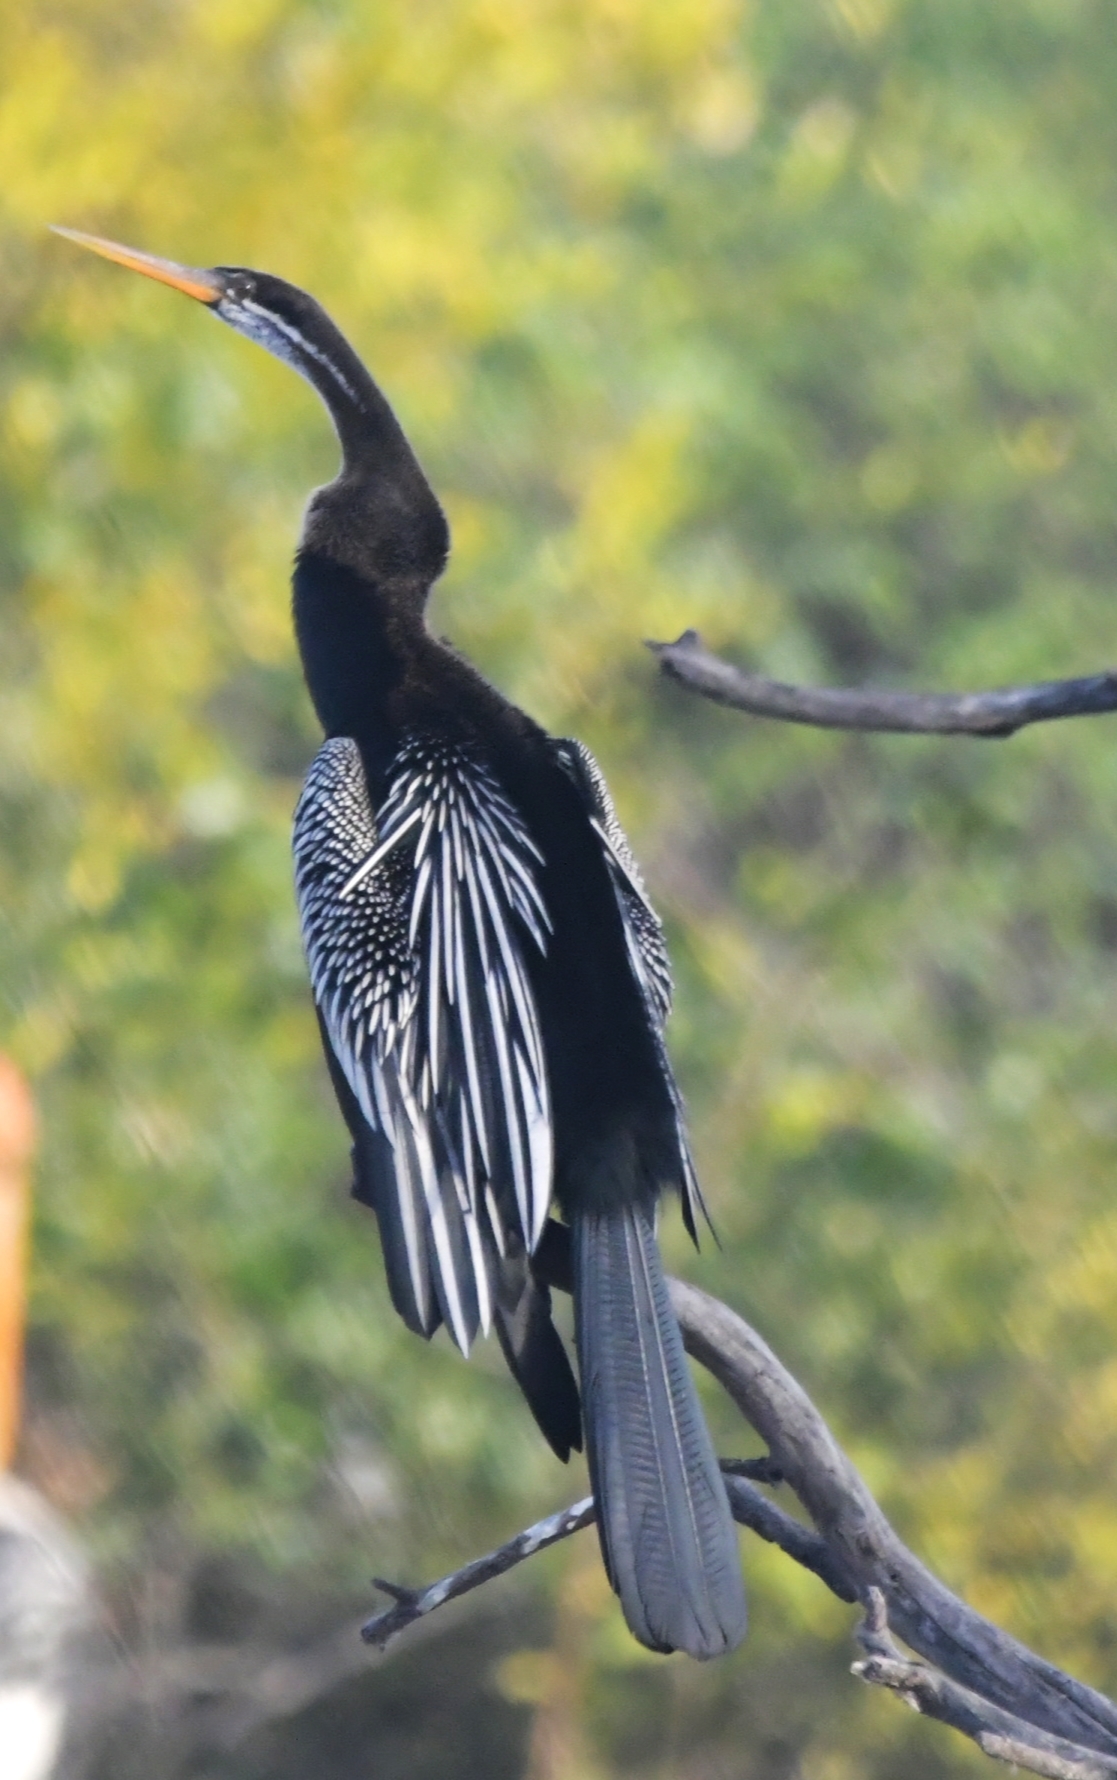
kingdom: Animalia
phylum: Chordata
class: Aves
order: Suliformes
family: Anhingidae
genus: Anhinga
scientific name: Anhinga melanogaster
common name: Oriental darter
